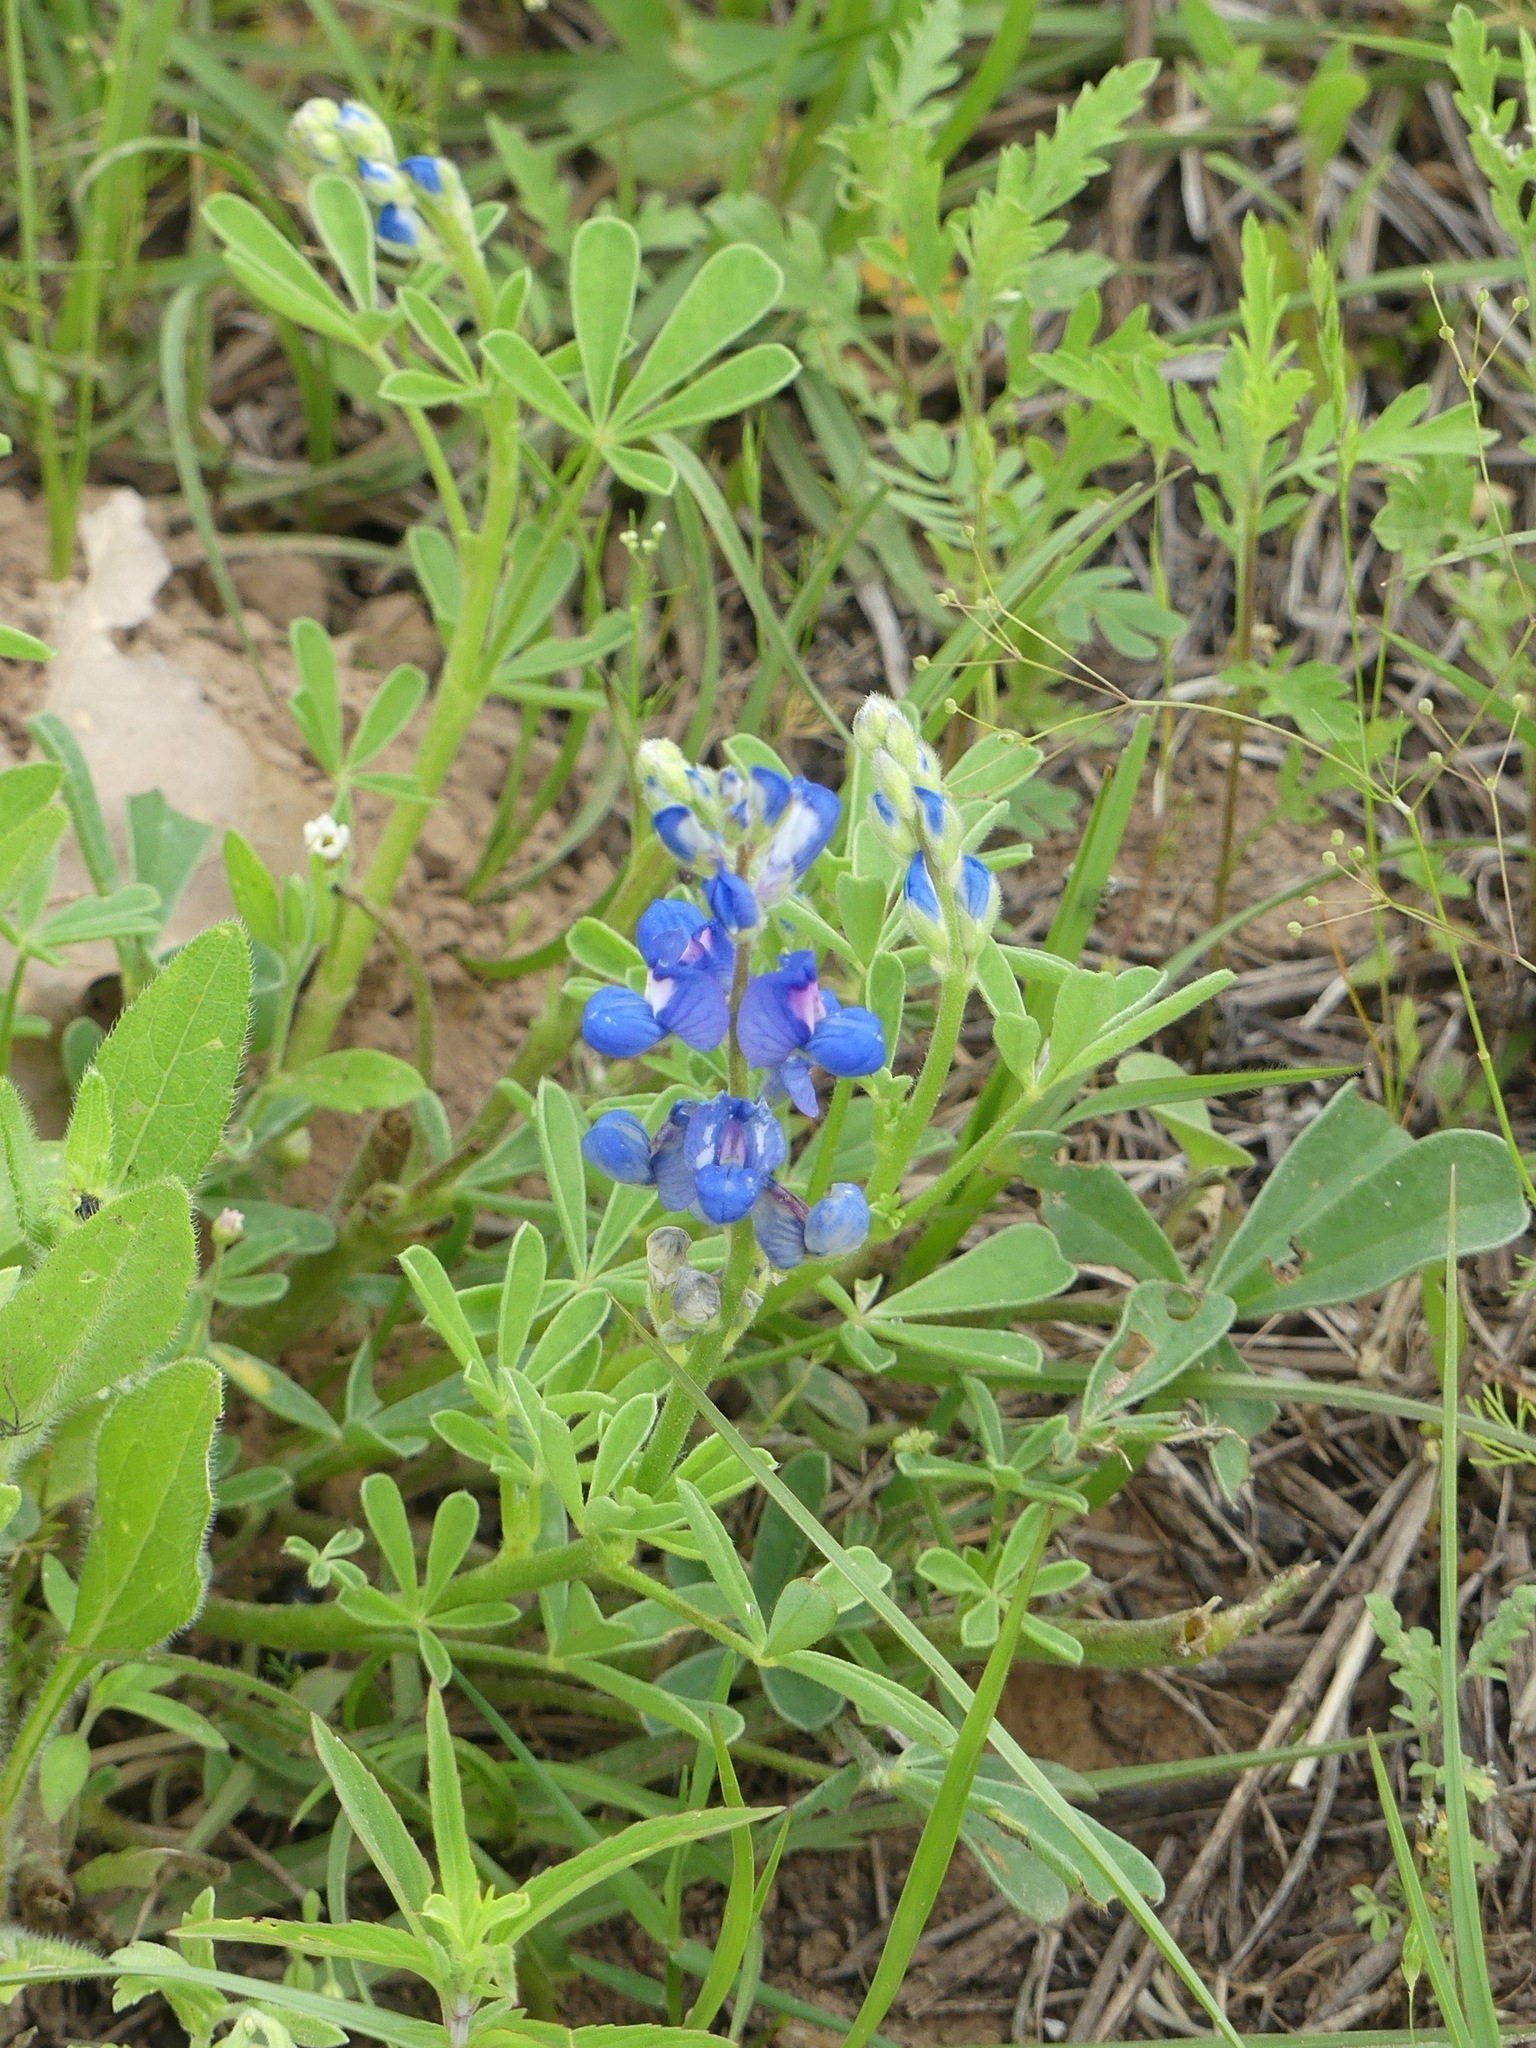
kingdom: Plantae
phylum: Tracheophyta
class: Magnoliopsida
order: Fabales
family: Fabaceae
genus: Lupinus
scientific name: Lupinus subcarnosus
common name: Texas bluebonnet
